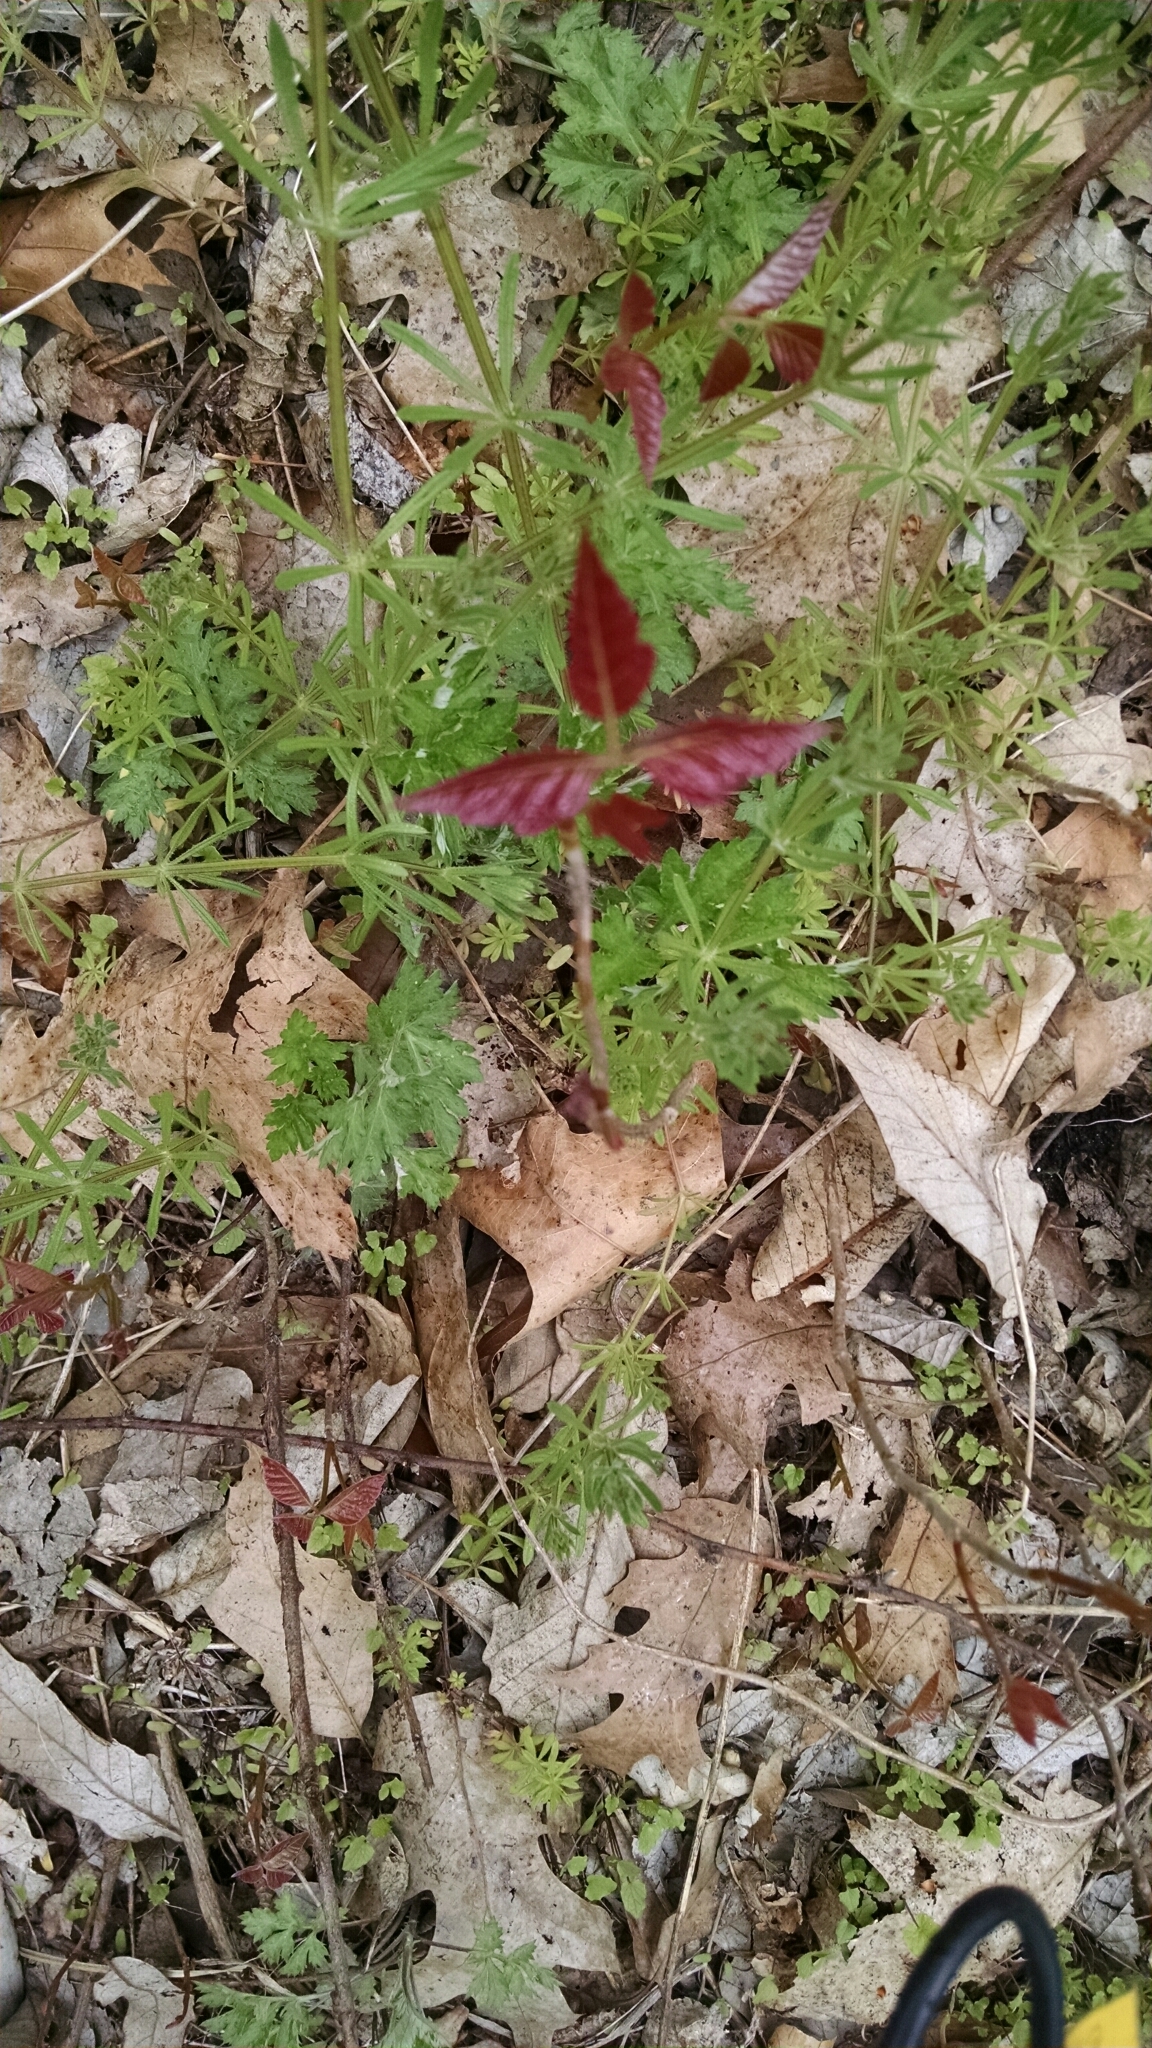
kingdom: Plantae
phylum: Tracheophyta
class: Magnoliopsida
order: Sapindales
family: Anacardiaceae
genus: Toxicodendron
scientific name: Toxicodendron radicans
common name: Poison ivy
